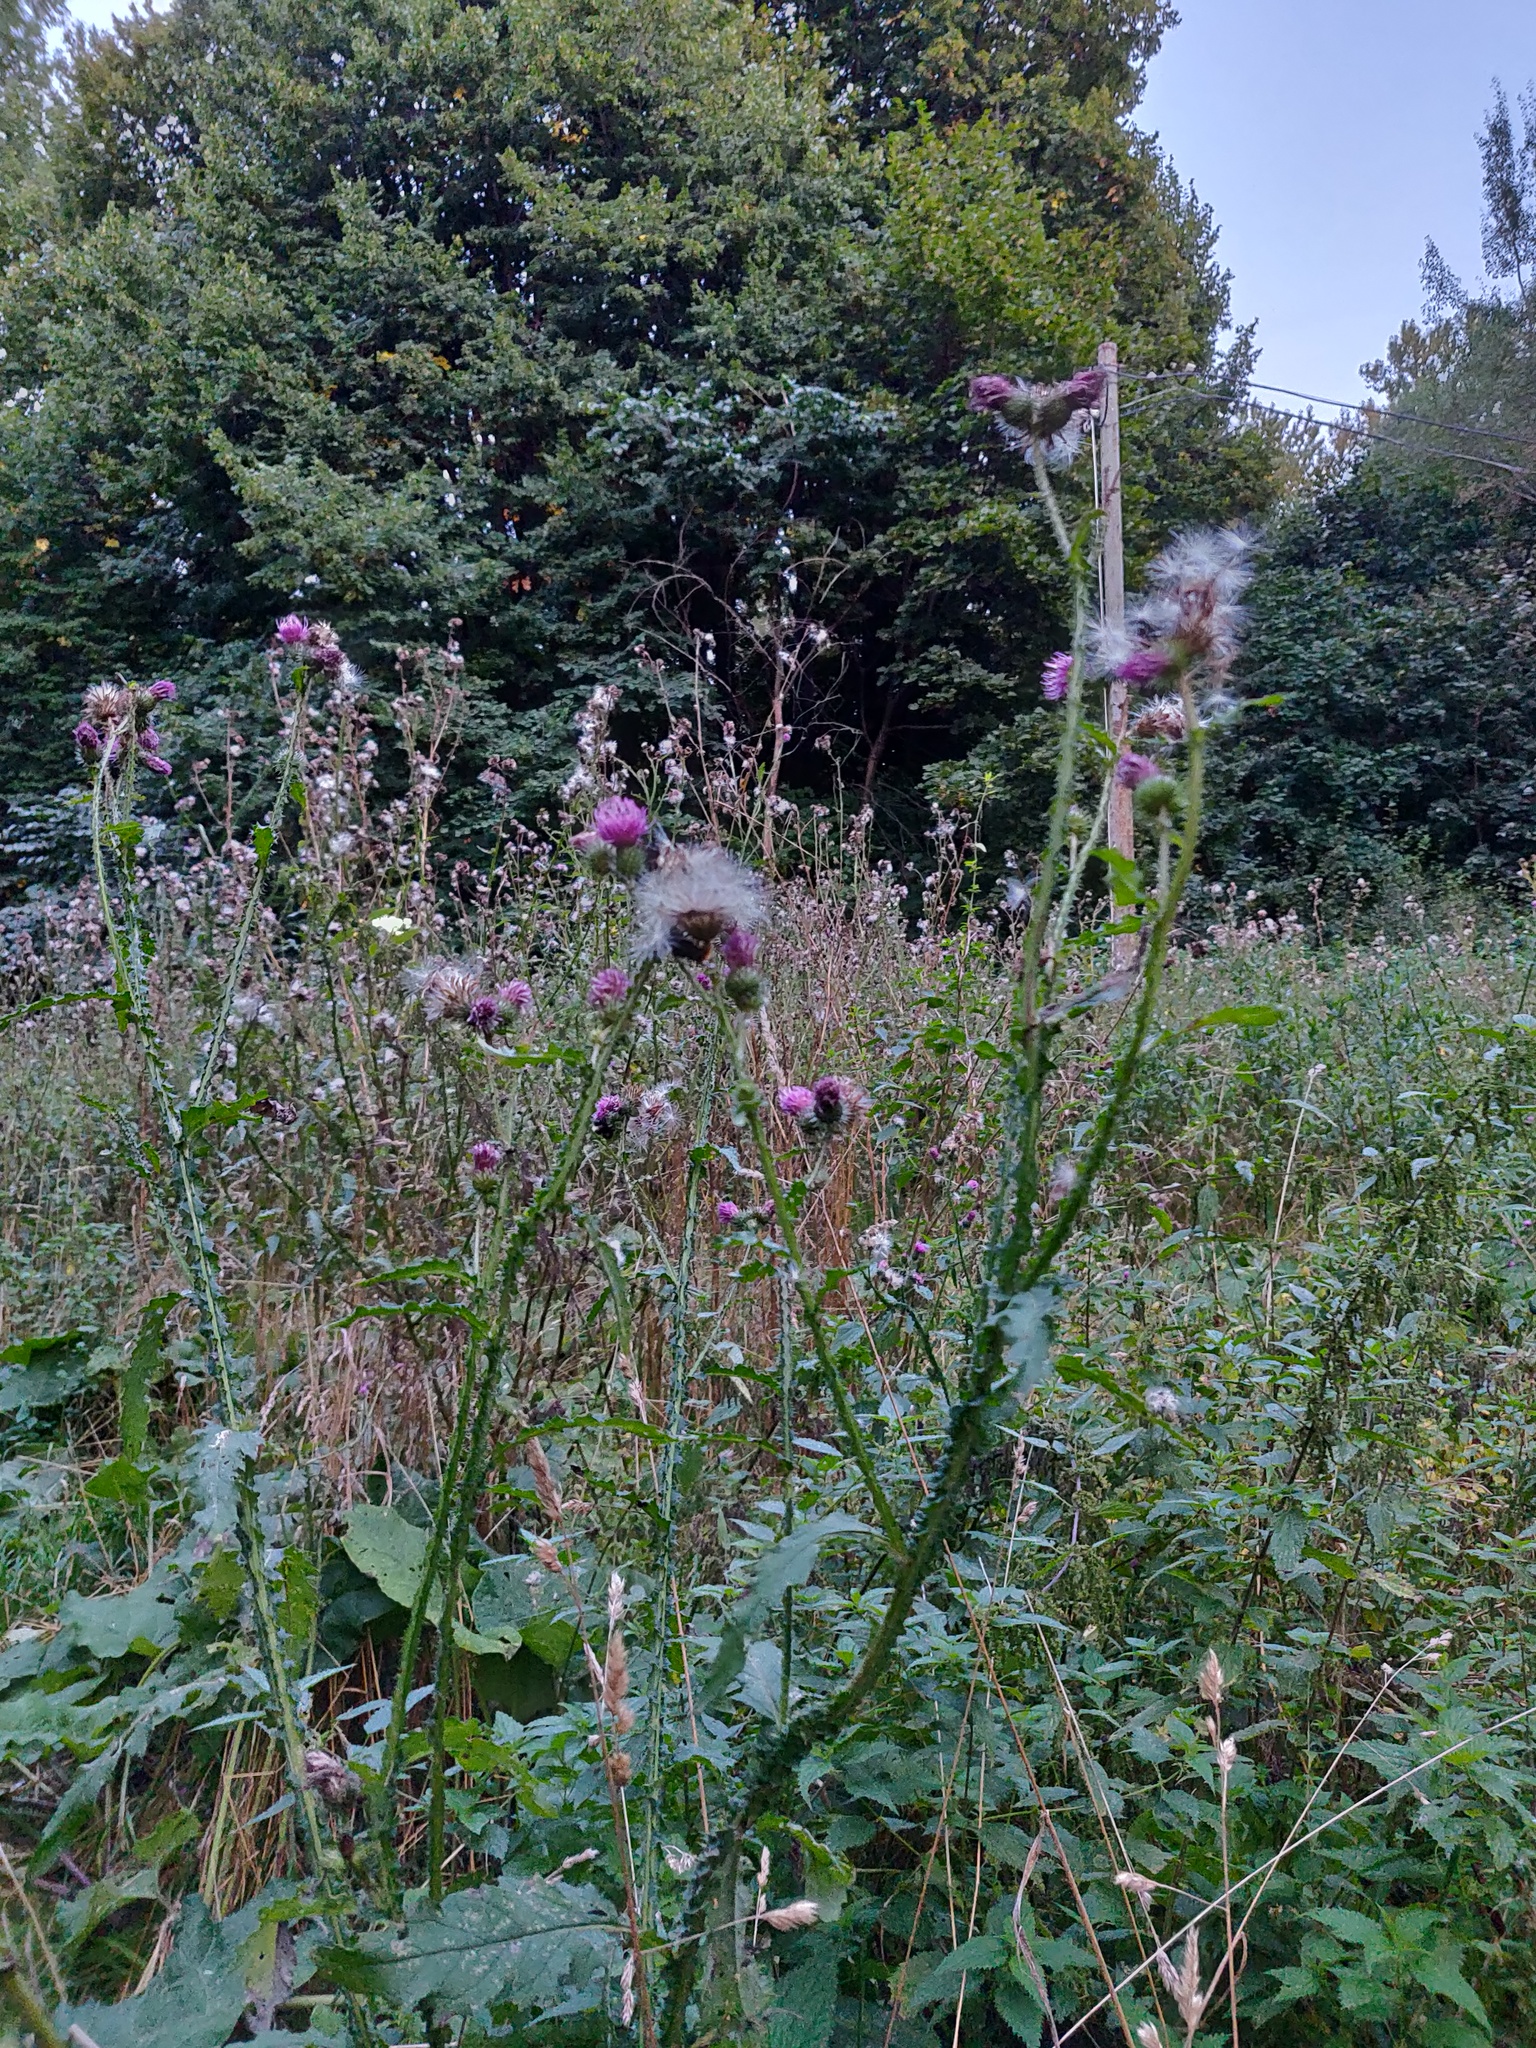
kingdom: Plantae
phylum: Tracheophyta
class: Magnoliopsida
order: Asterales
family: Asteraceae
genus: Carduus
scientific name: Carduus crispus
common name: Welted thistle
